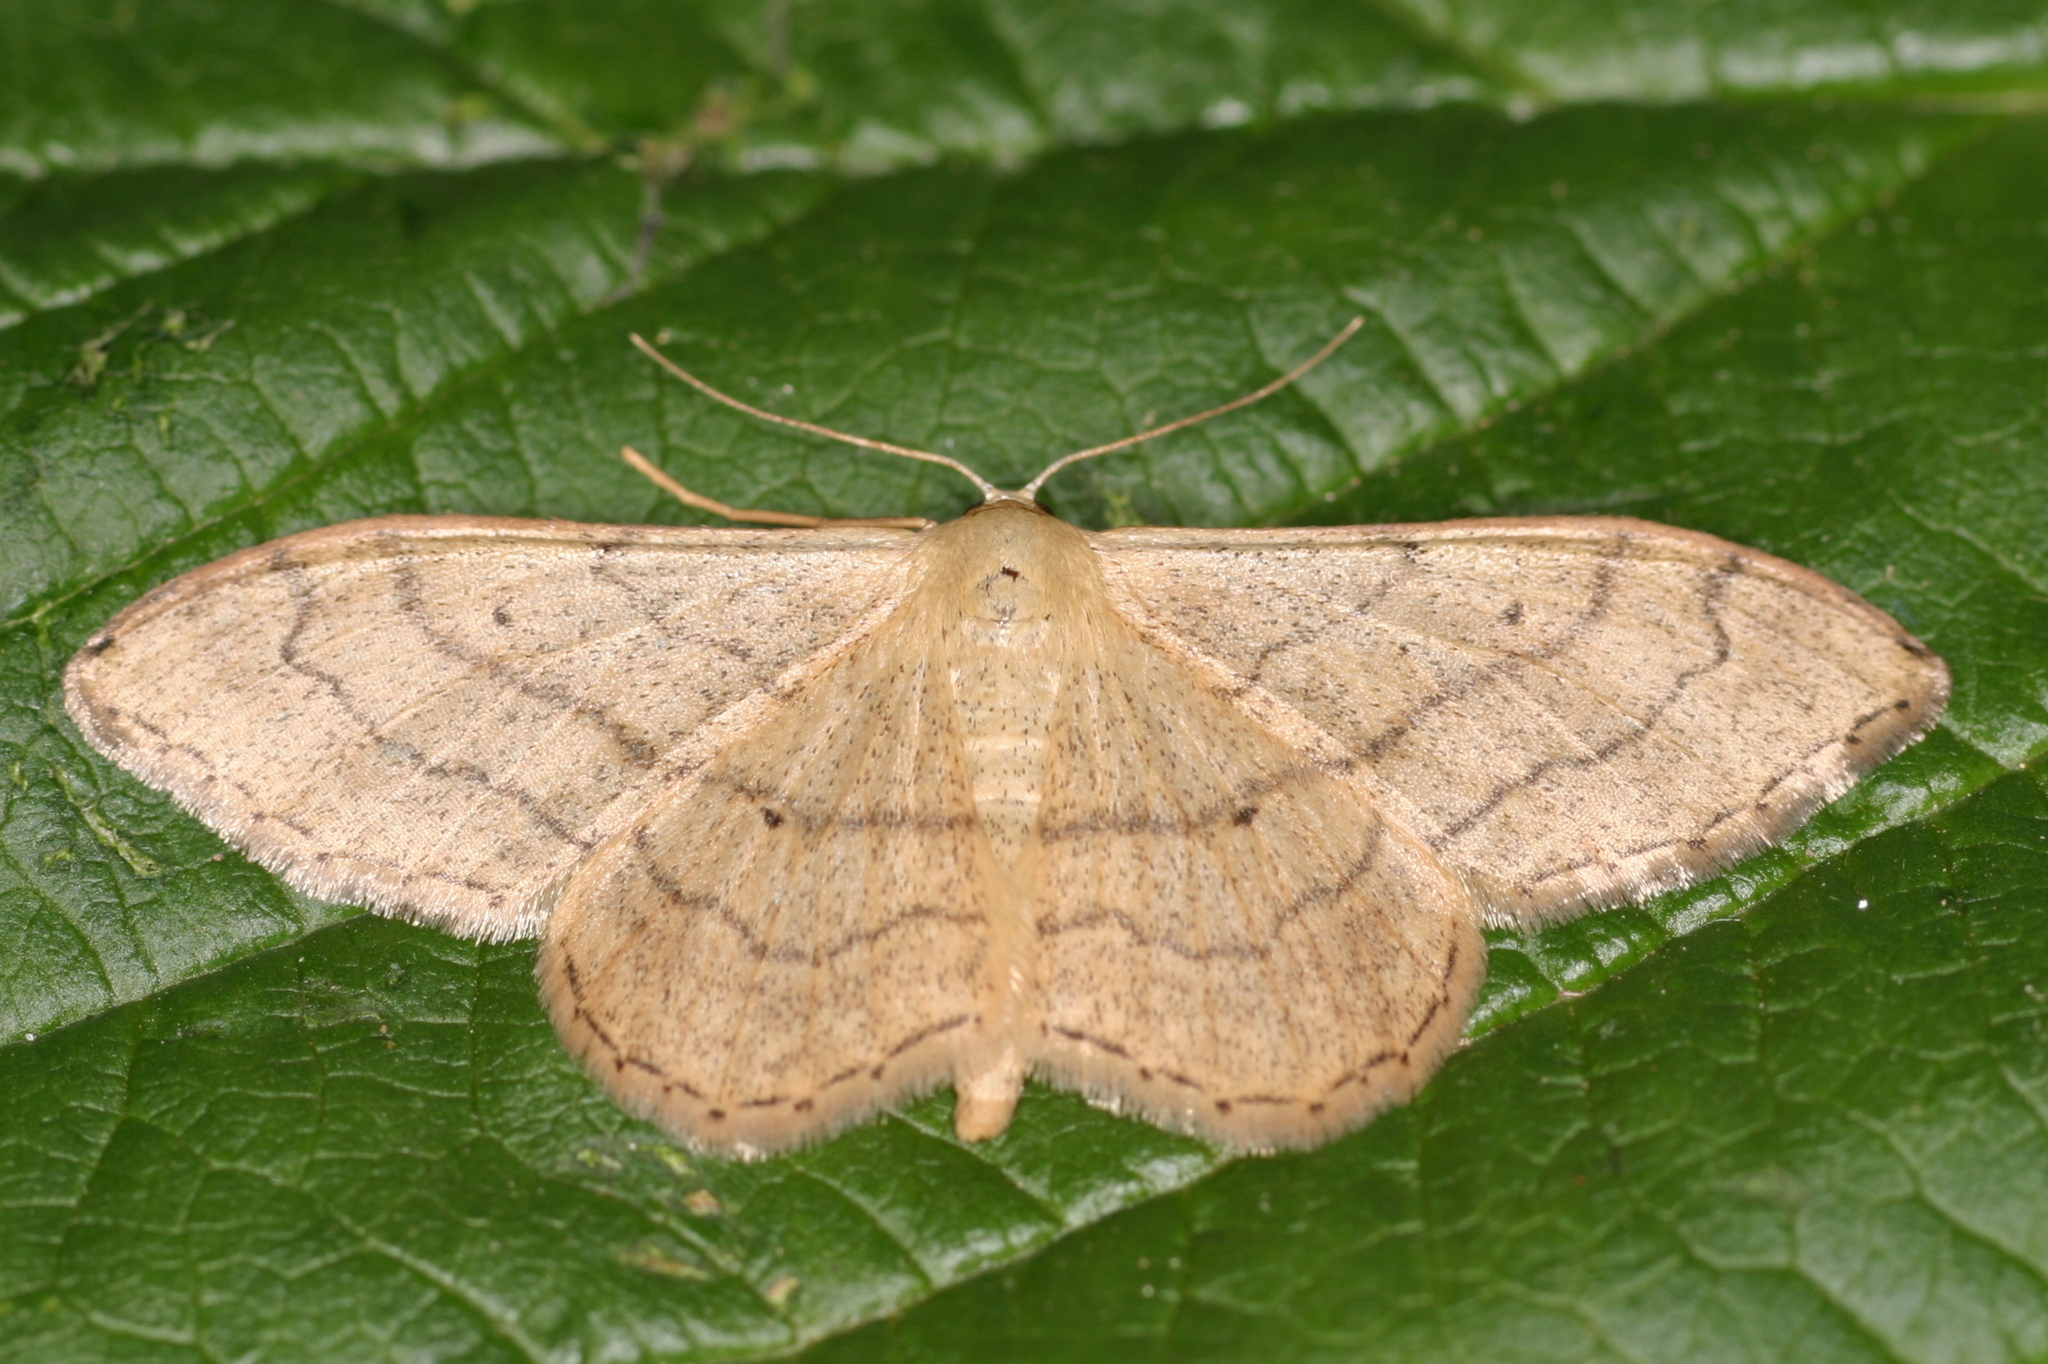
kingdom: Animalia
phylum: Arthropoda
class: Insecta
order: Lepidoptera
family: Geometridae
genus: Idaea
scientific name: Idaea aversata
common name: Riband wave
